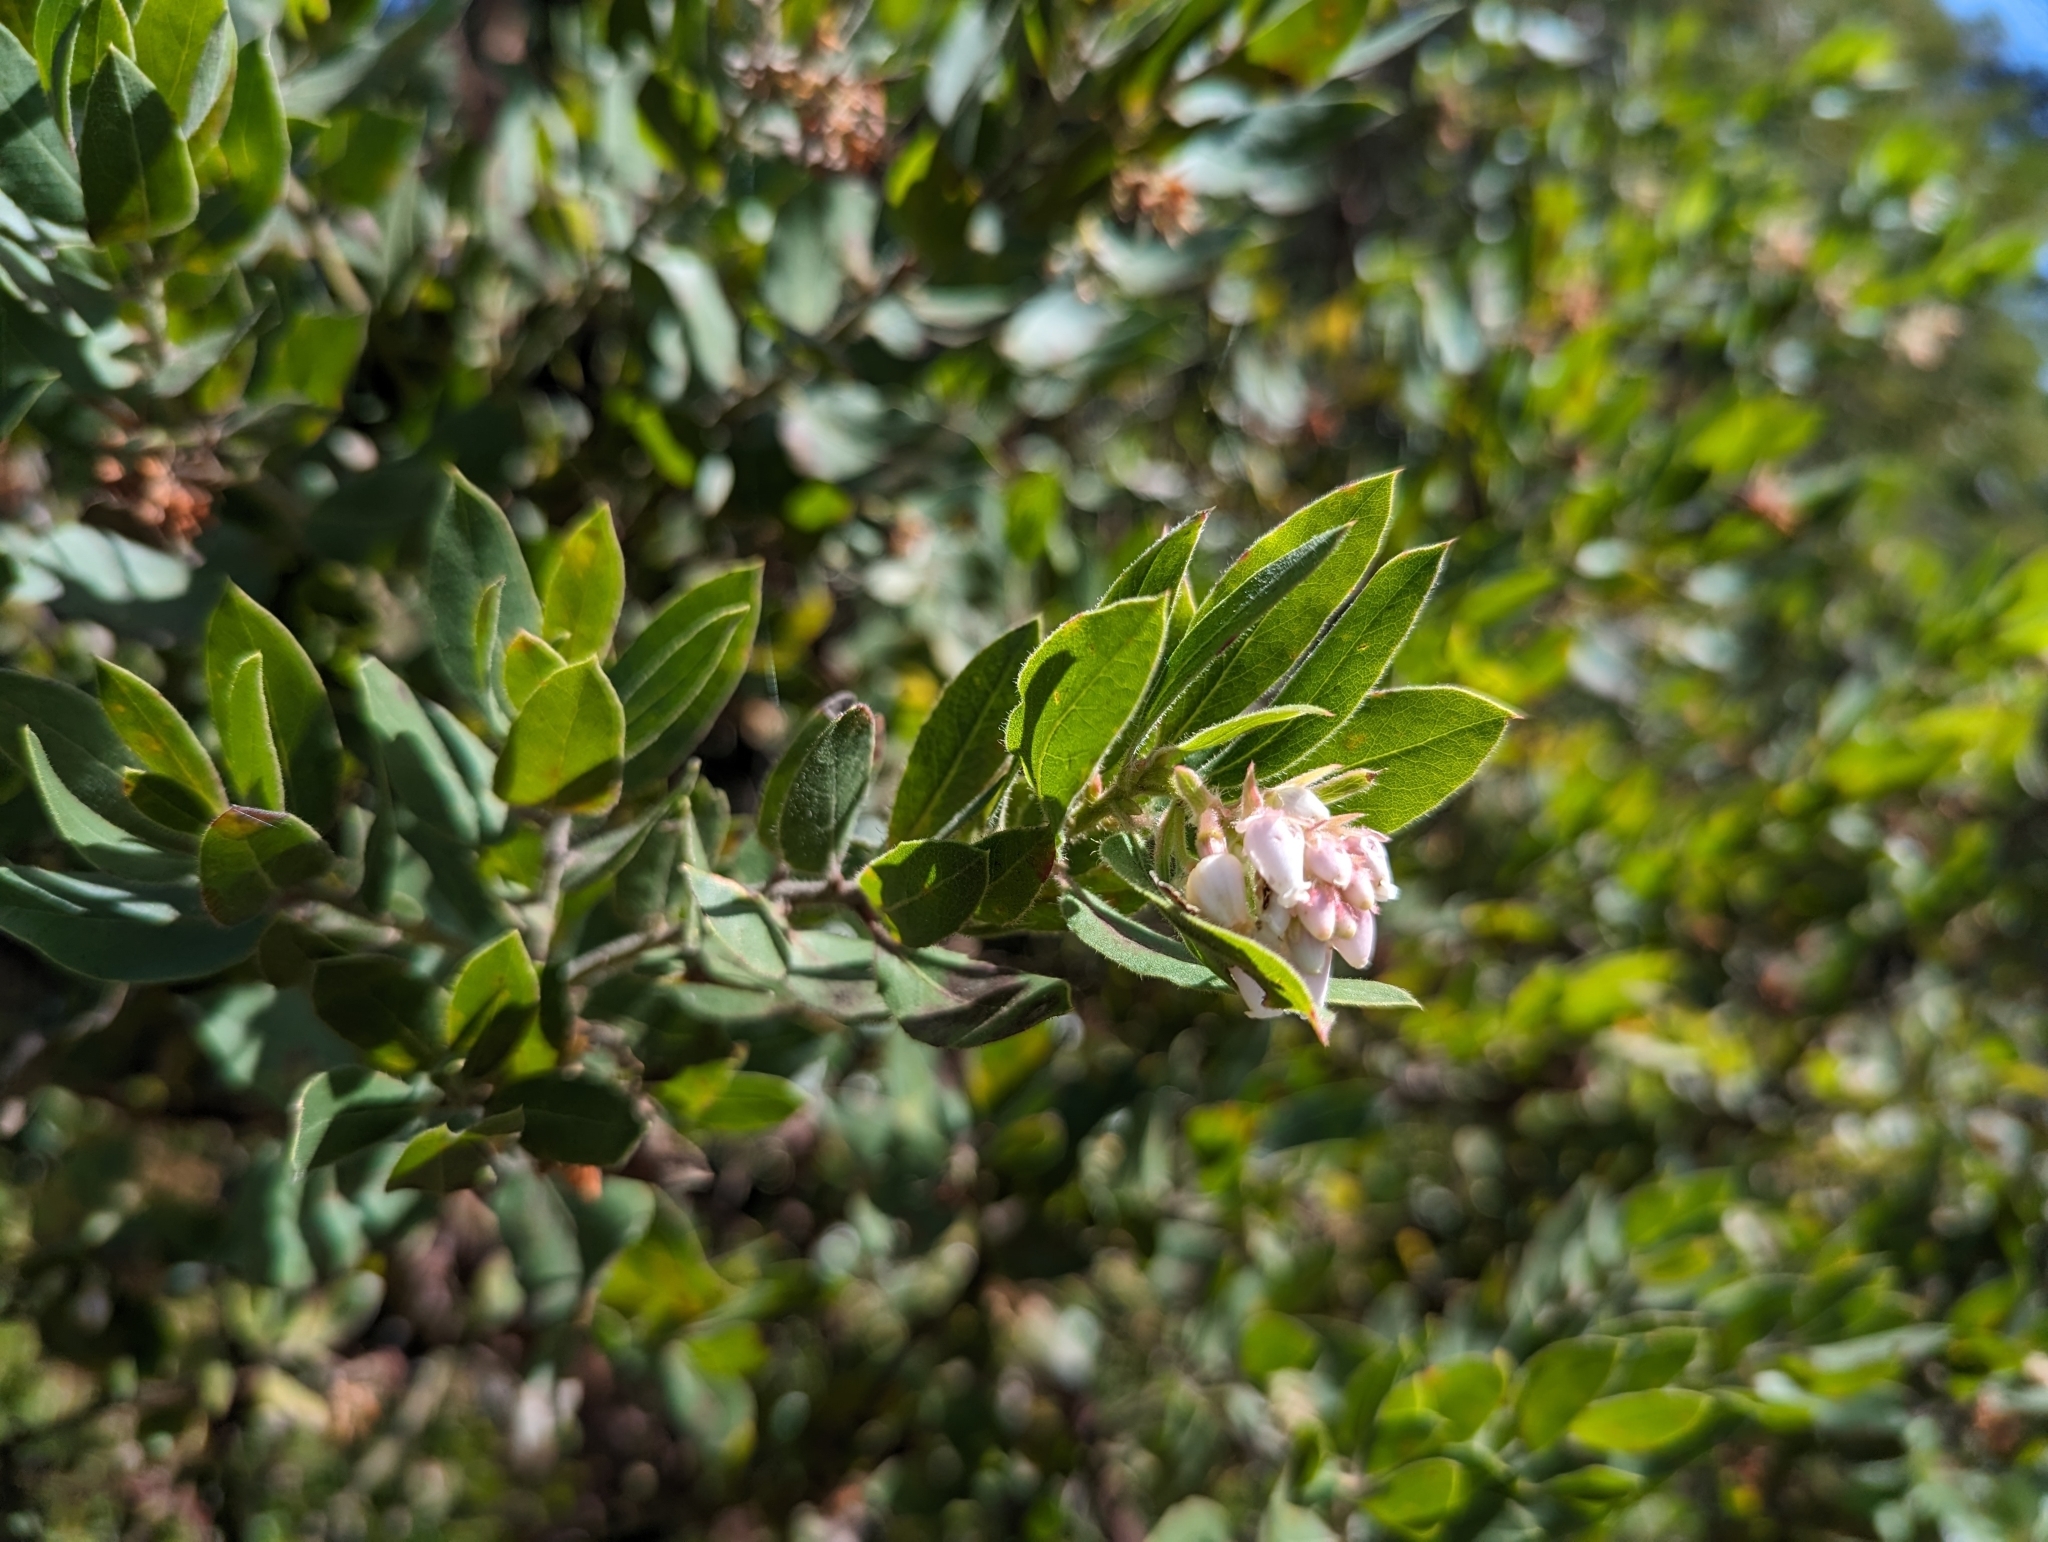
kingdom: Plantae
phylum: Tracheophyta
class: Magnoliopsida
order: Ericales
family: Ericaceae
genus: Arctostaphylos
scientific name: Arctostaphylos virgata
